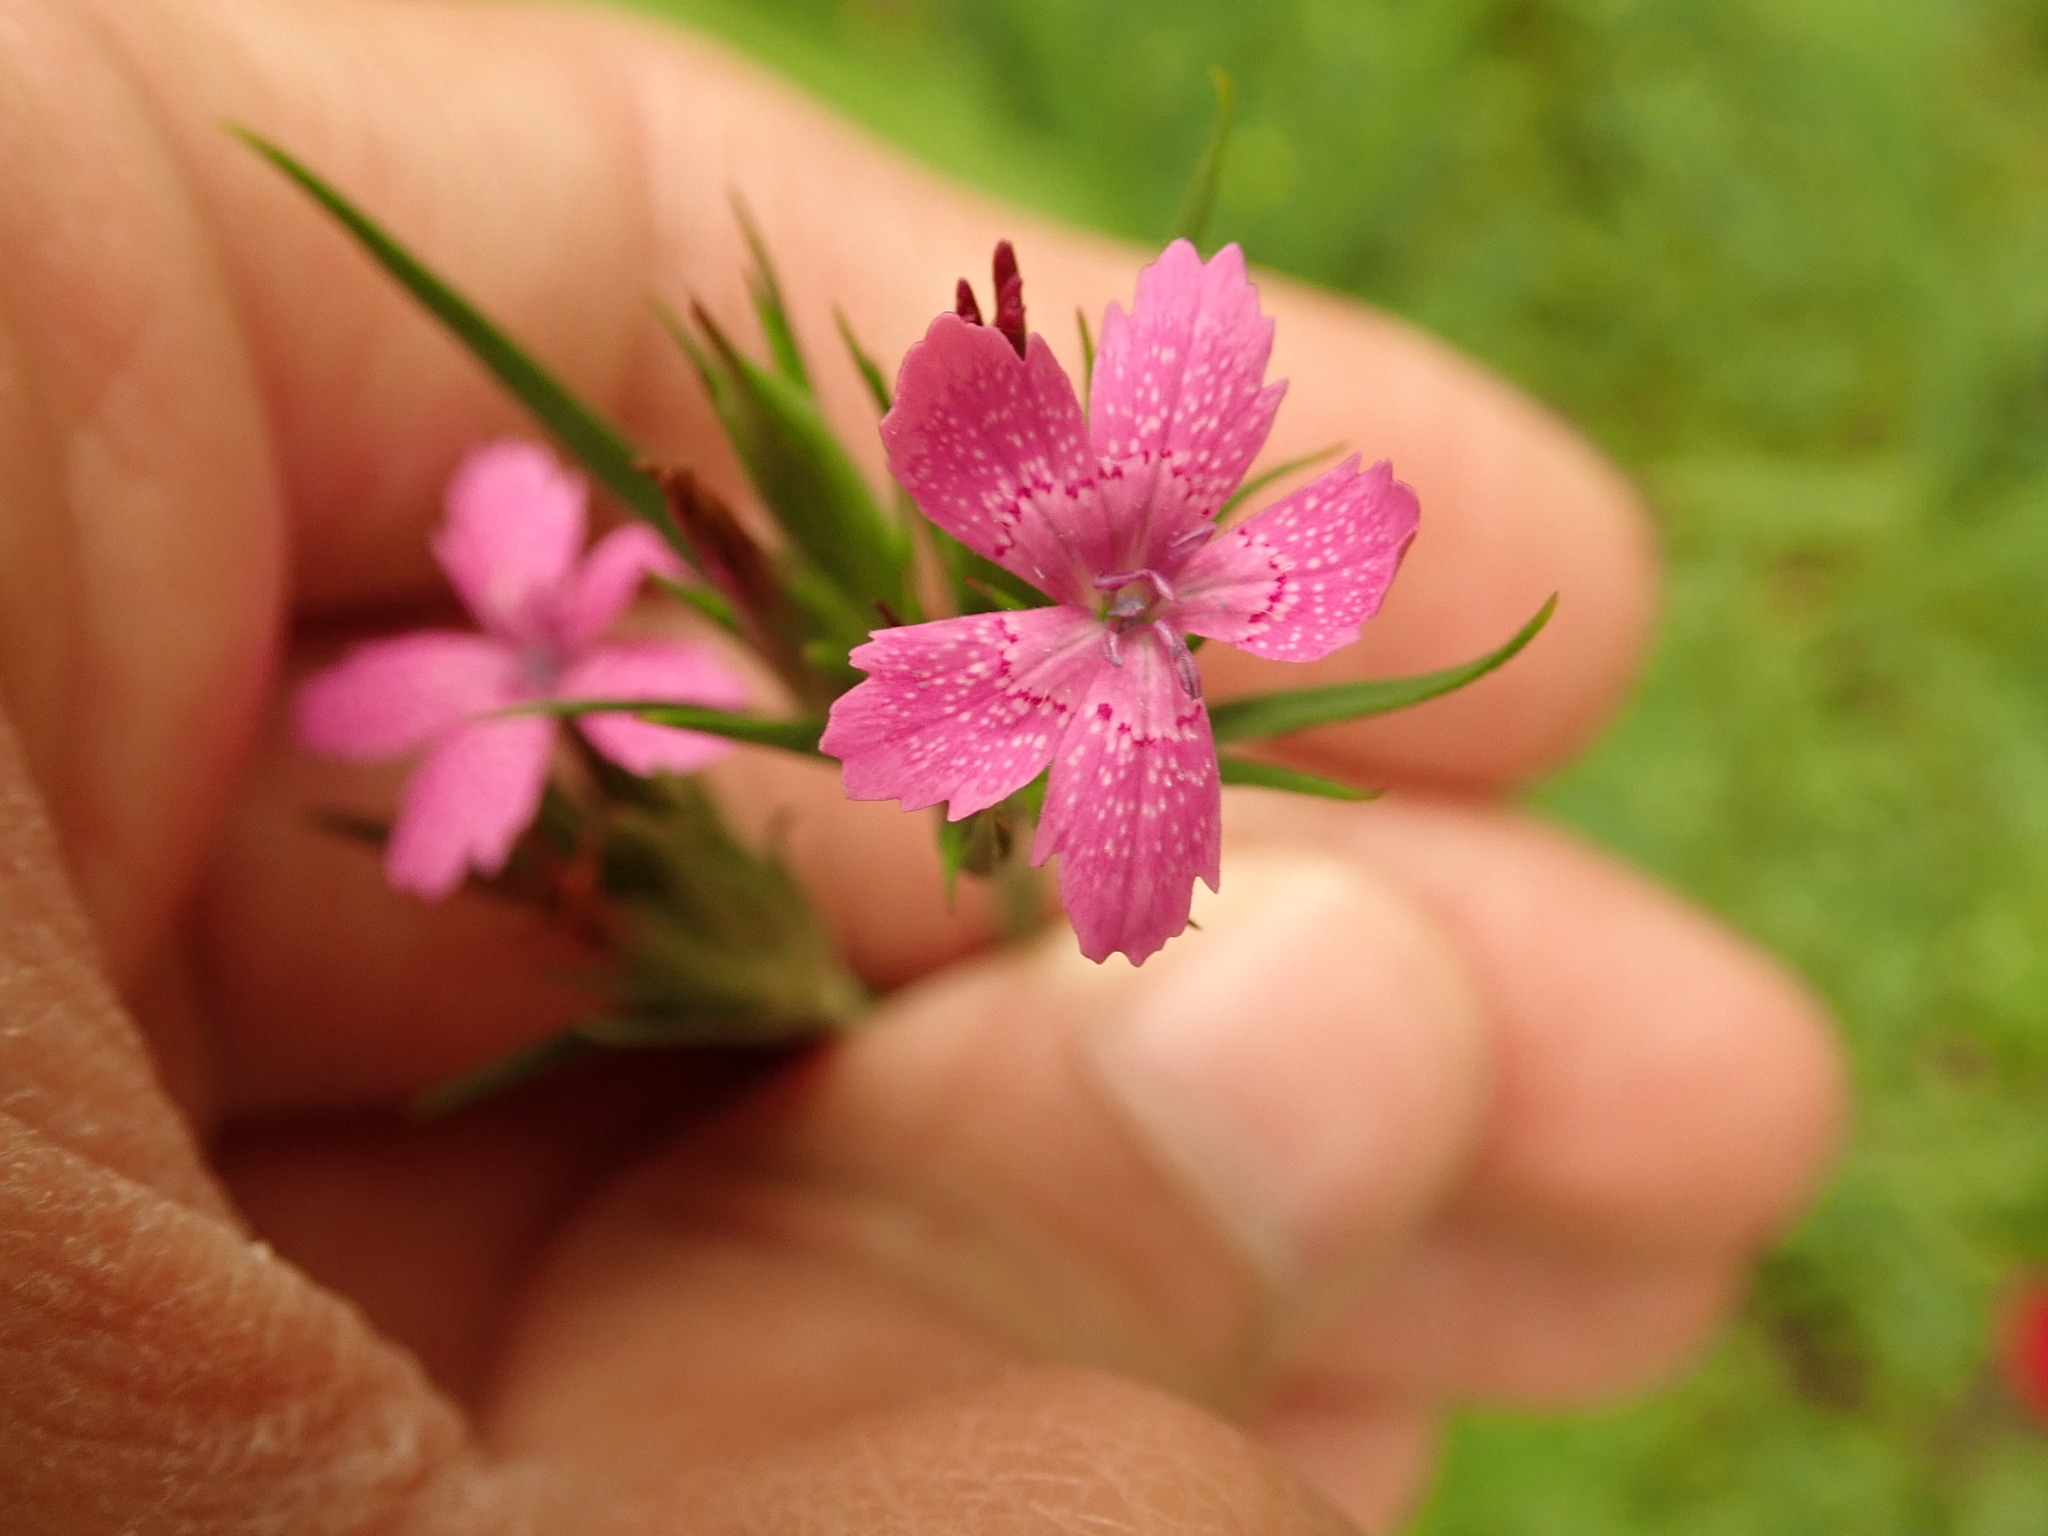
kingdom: Plantae
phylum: Tracheophyta
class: Magnoliopsida
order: Caryophyllales
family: Caryophyllaceae
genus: Dianthus
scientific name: Dianthus armeria
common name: Deptford pink
